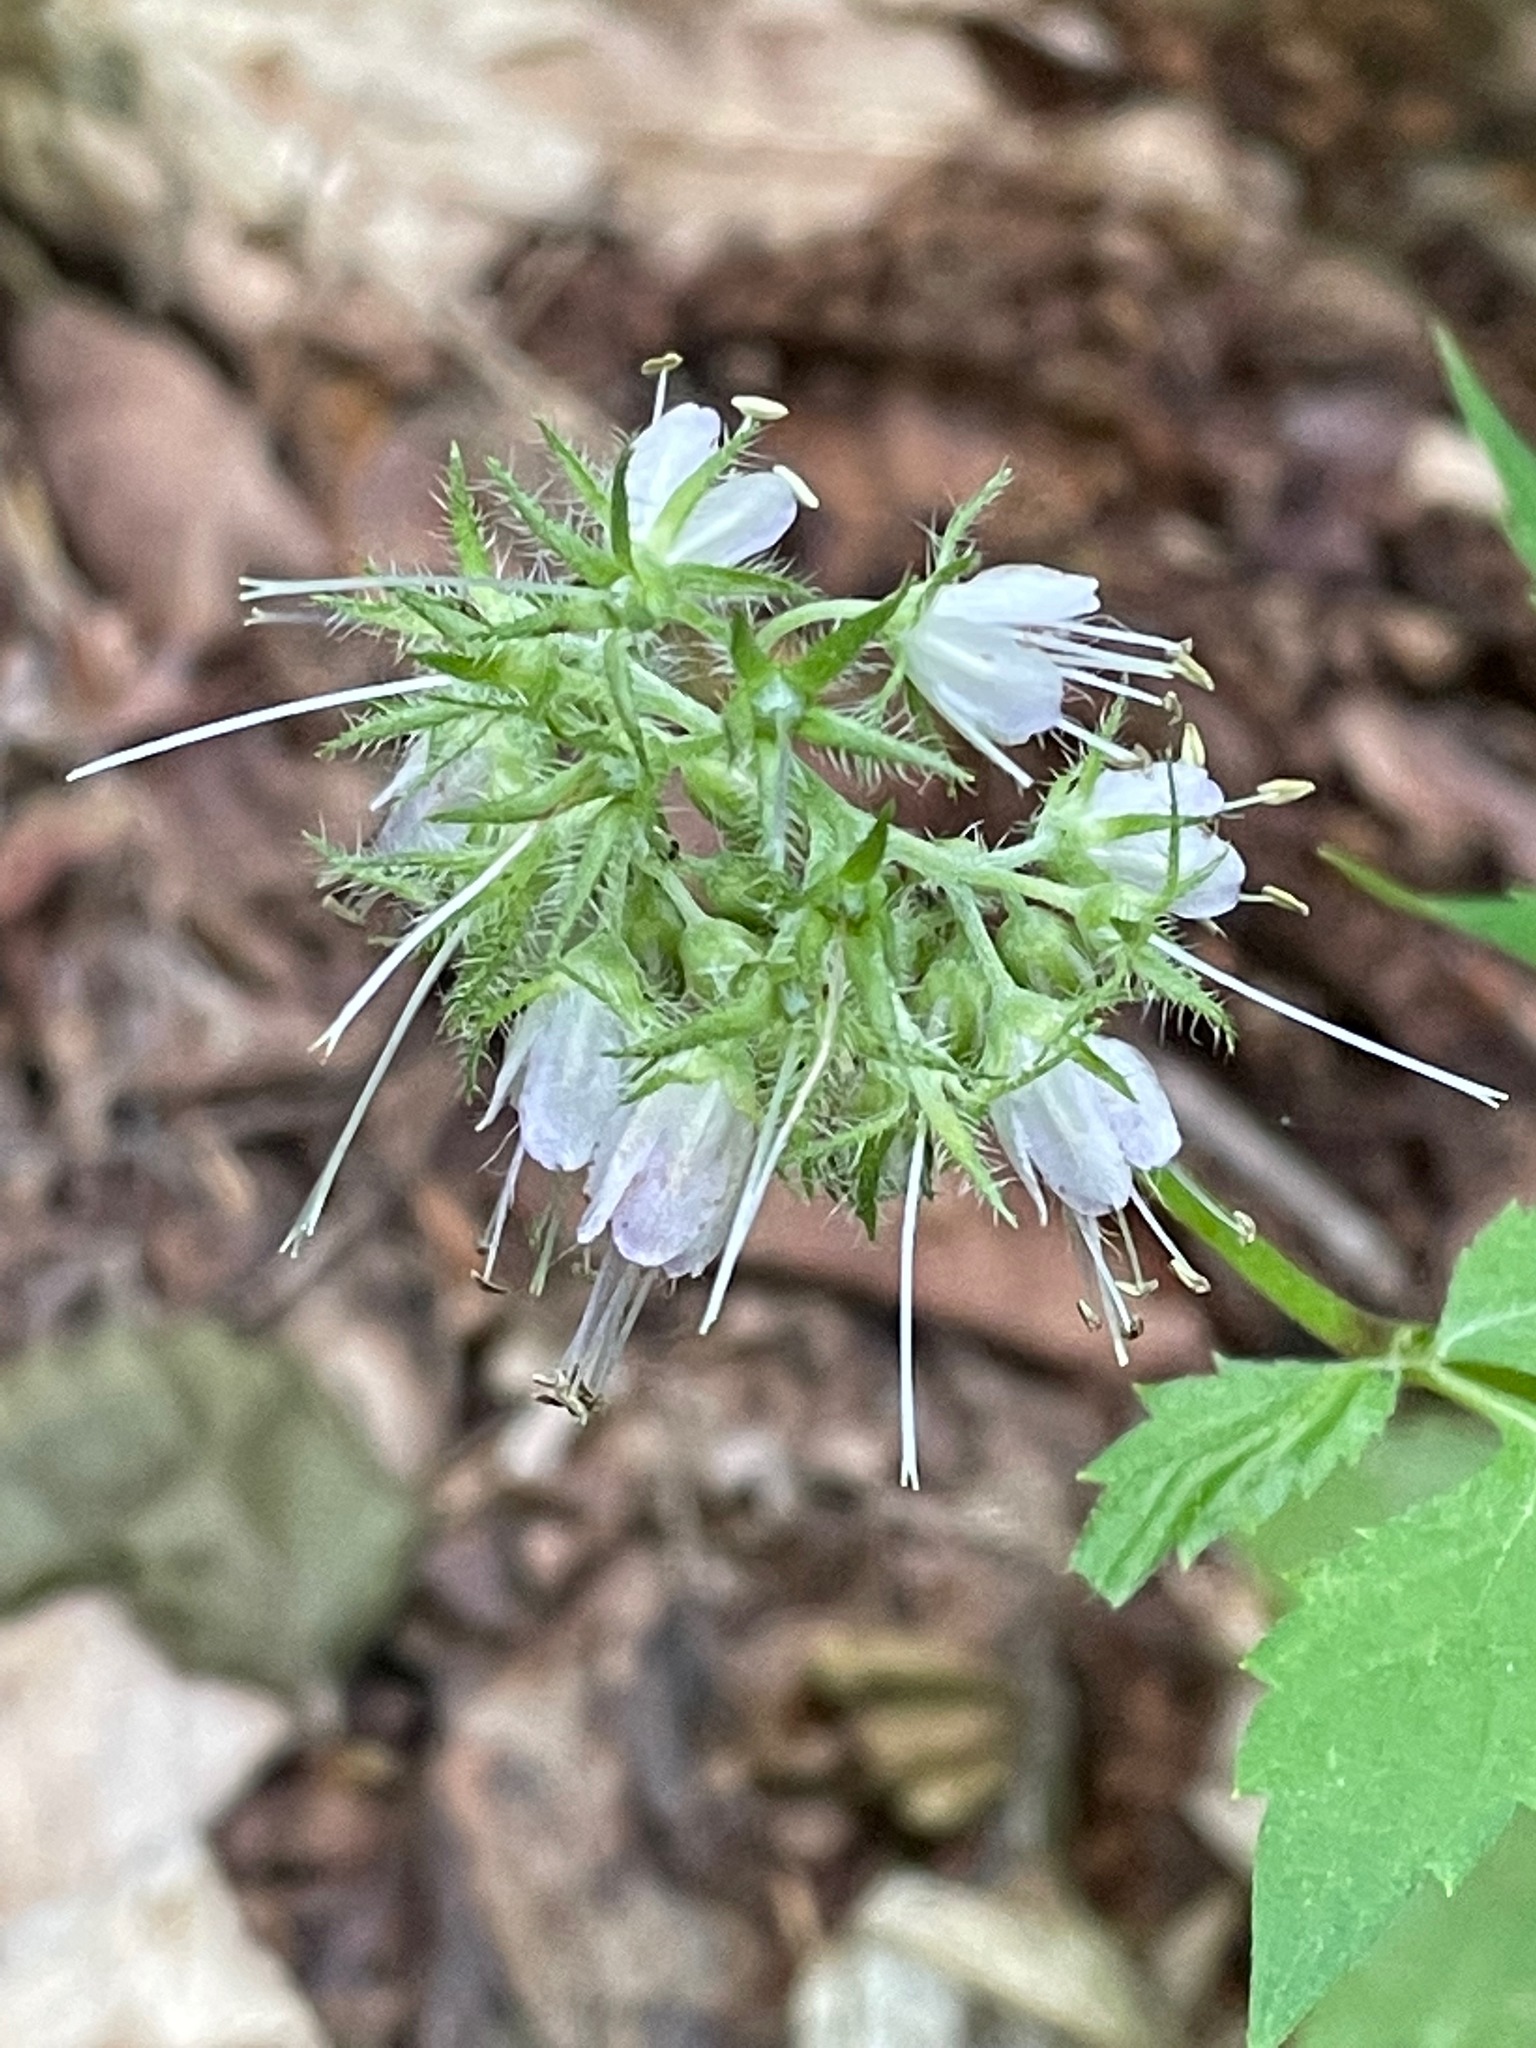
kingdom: Plantae
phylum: Tracheophyta
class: Magnoliopsida
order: Boraginales
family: Hydrophyllaceae
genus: Hydrophyllum
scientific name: Hydrophyllum virginianum
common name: Virginia waterleaf
